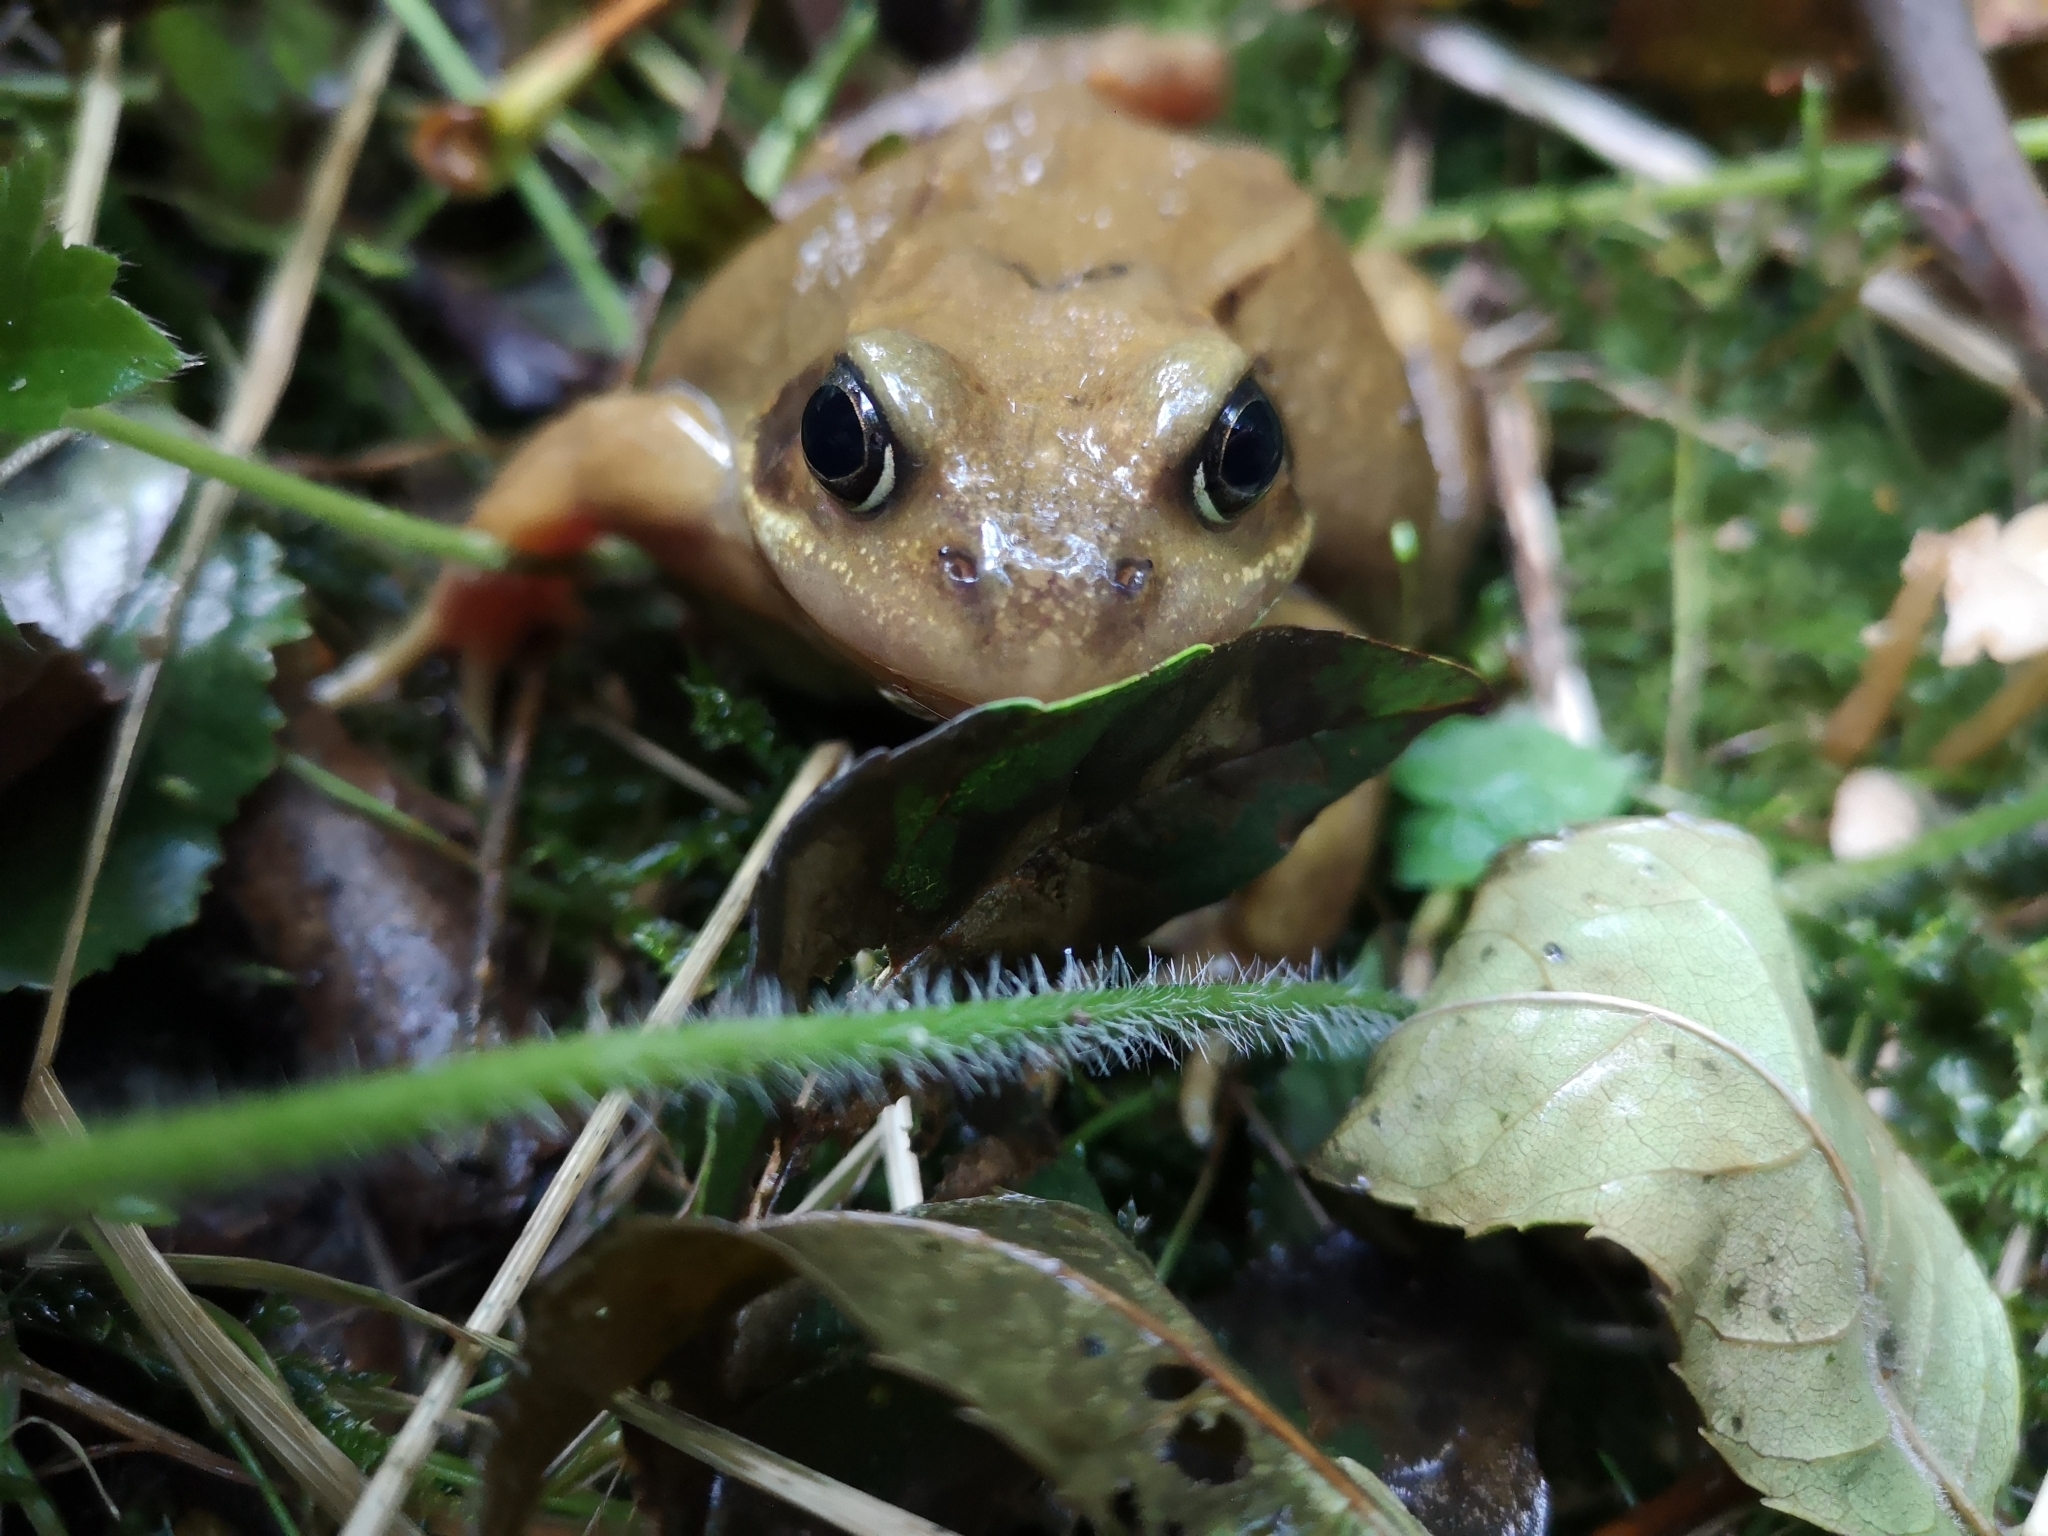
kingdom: Animalia
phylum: Chordata
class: Amphibia
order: Anura
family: Ranidae
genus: Rana
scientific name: Rana temporaria
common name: Common frog
